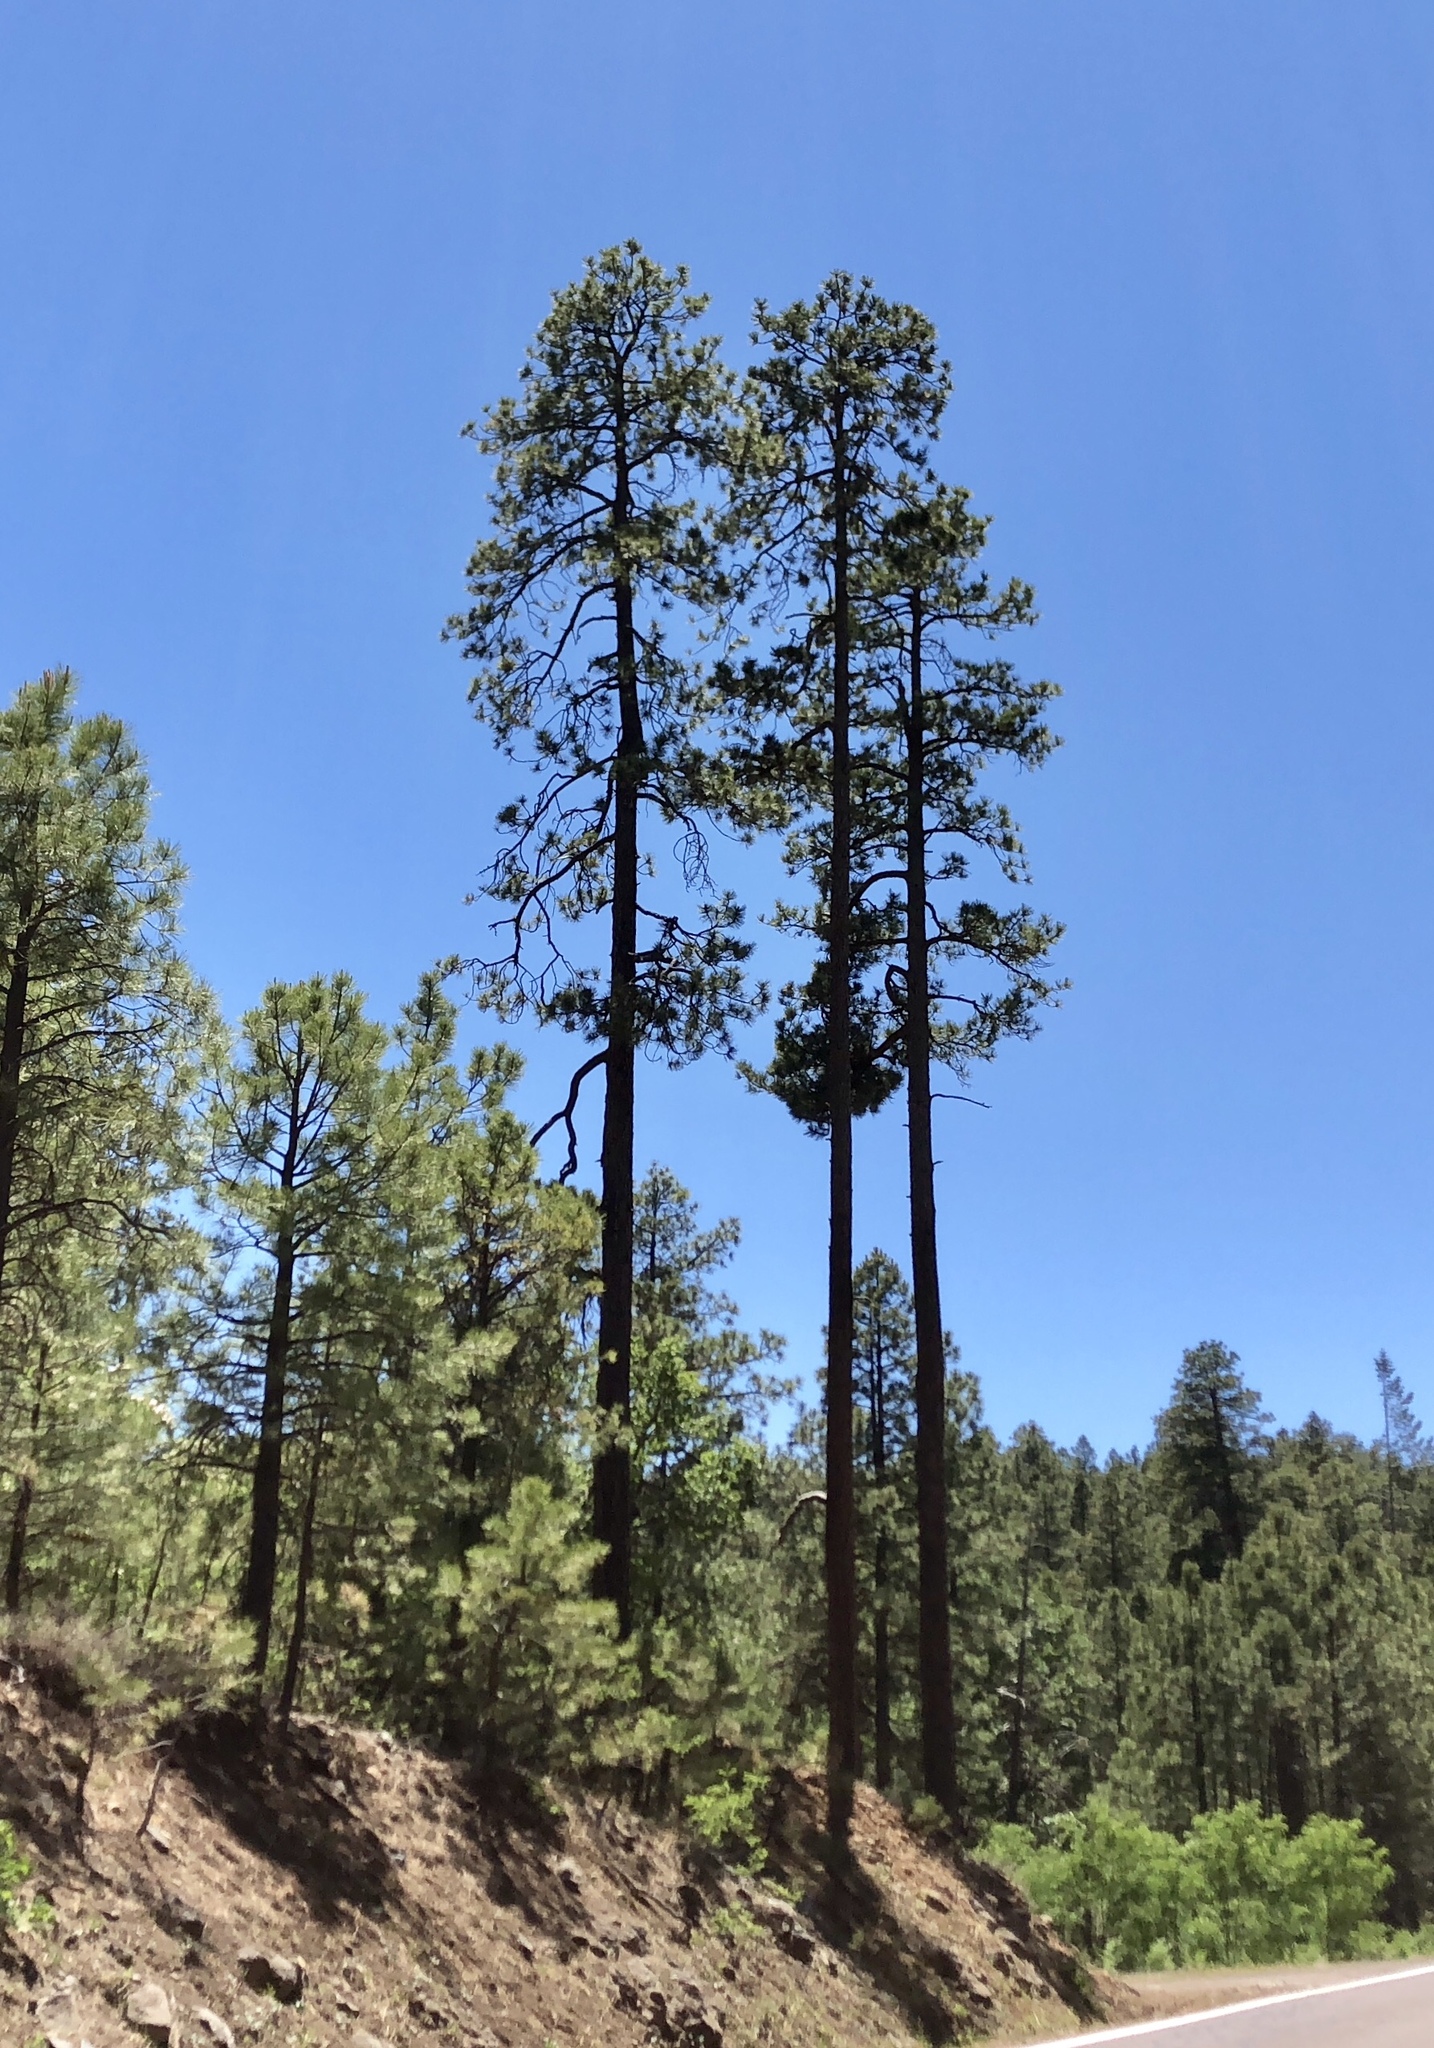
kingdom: Plantae
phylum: Tracheophyta
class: Pinopsida
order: Pinales
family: Pinaceae
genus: Pinus
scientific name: Pinus ponderosa
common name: Western yellow-pine
